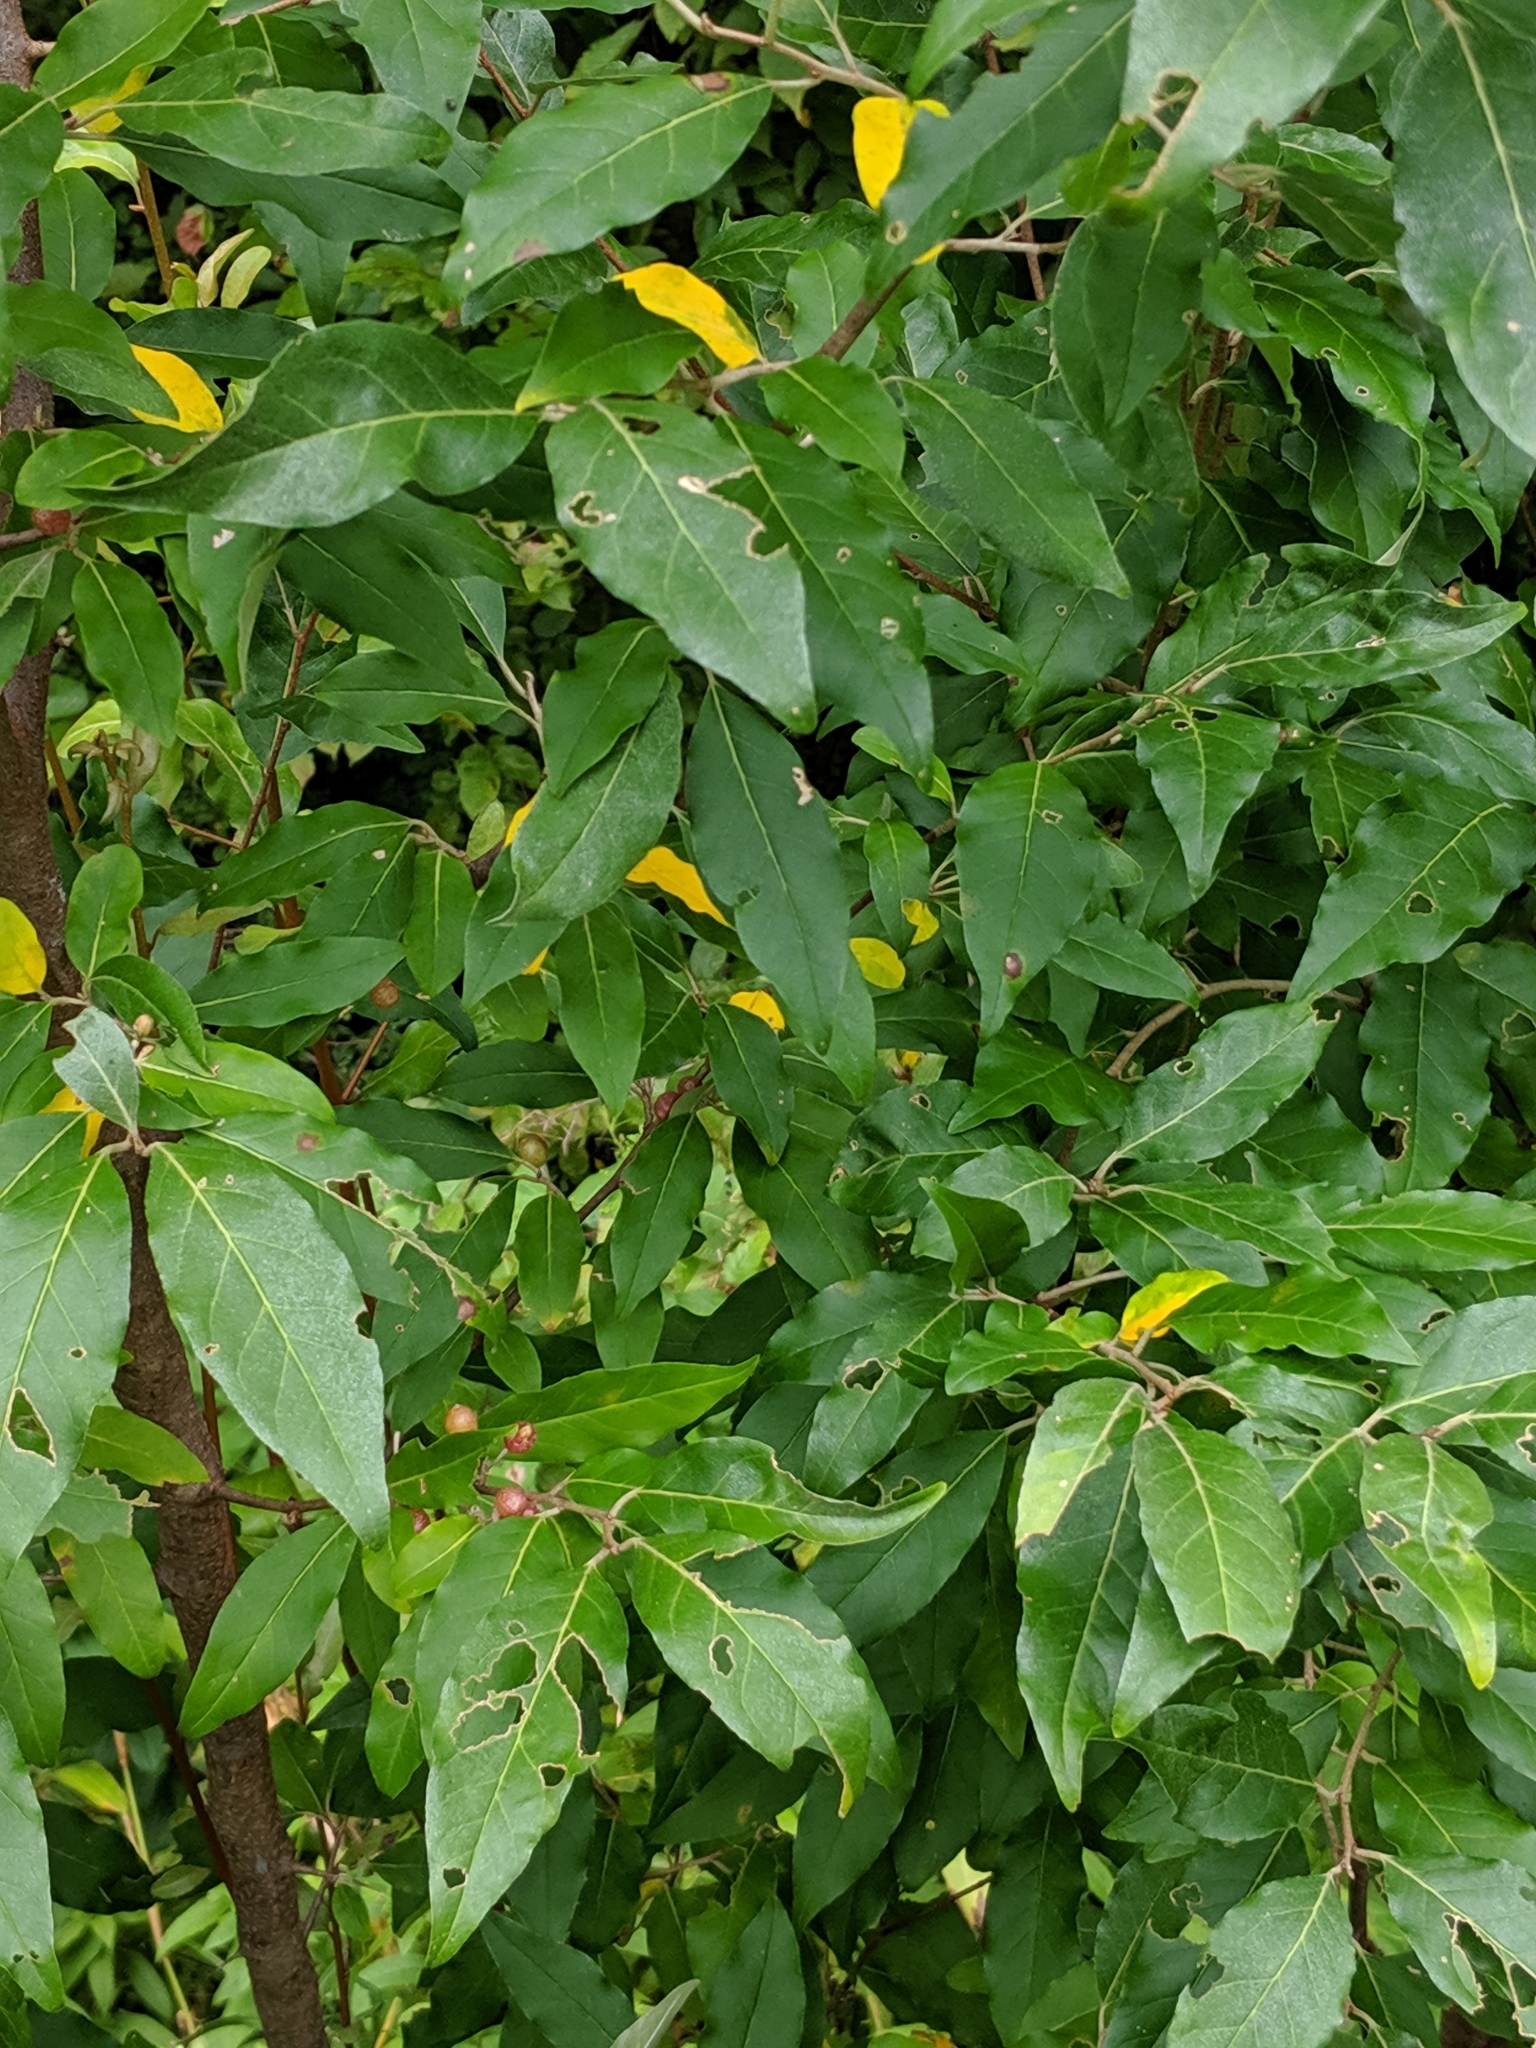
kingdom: Plantae
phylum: Tracheophyta
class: Magnoliopsida
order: Rosales
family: Elaeagnaceae
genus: Elaeagnus
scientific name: Elaeagnus umbellata
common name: Autumn olive
